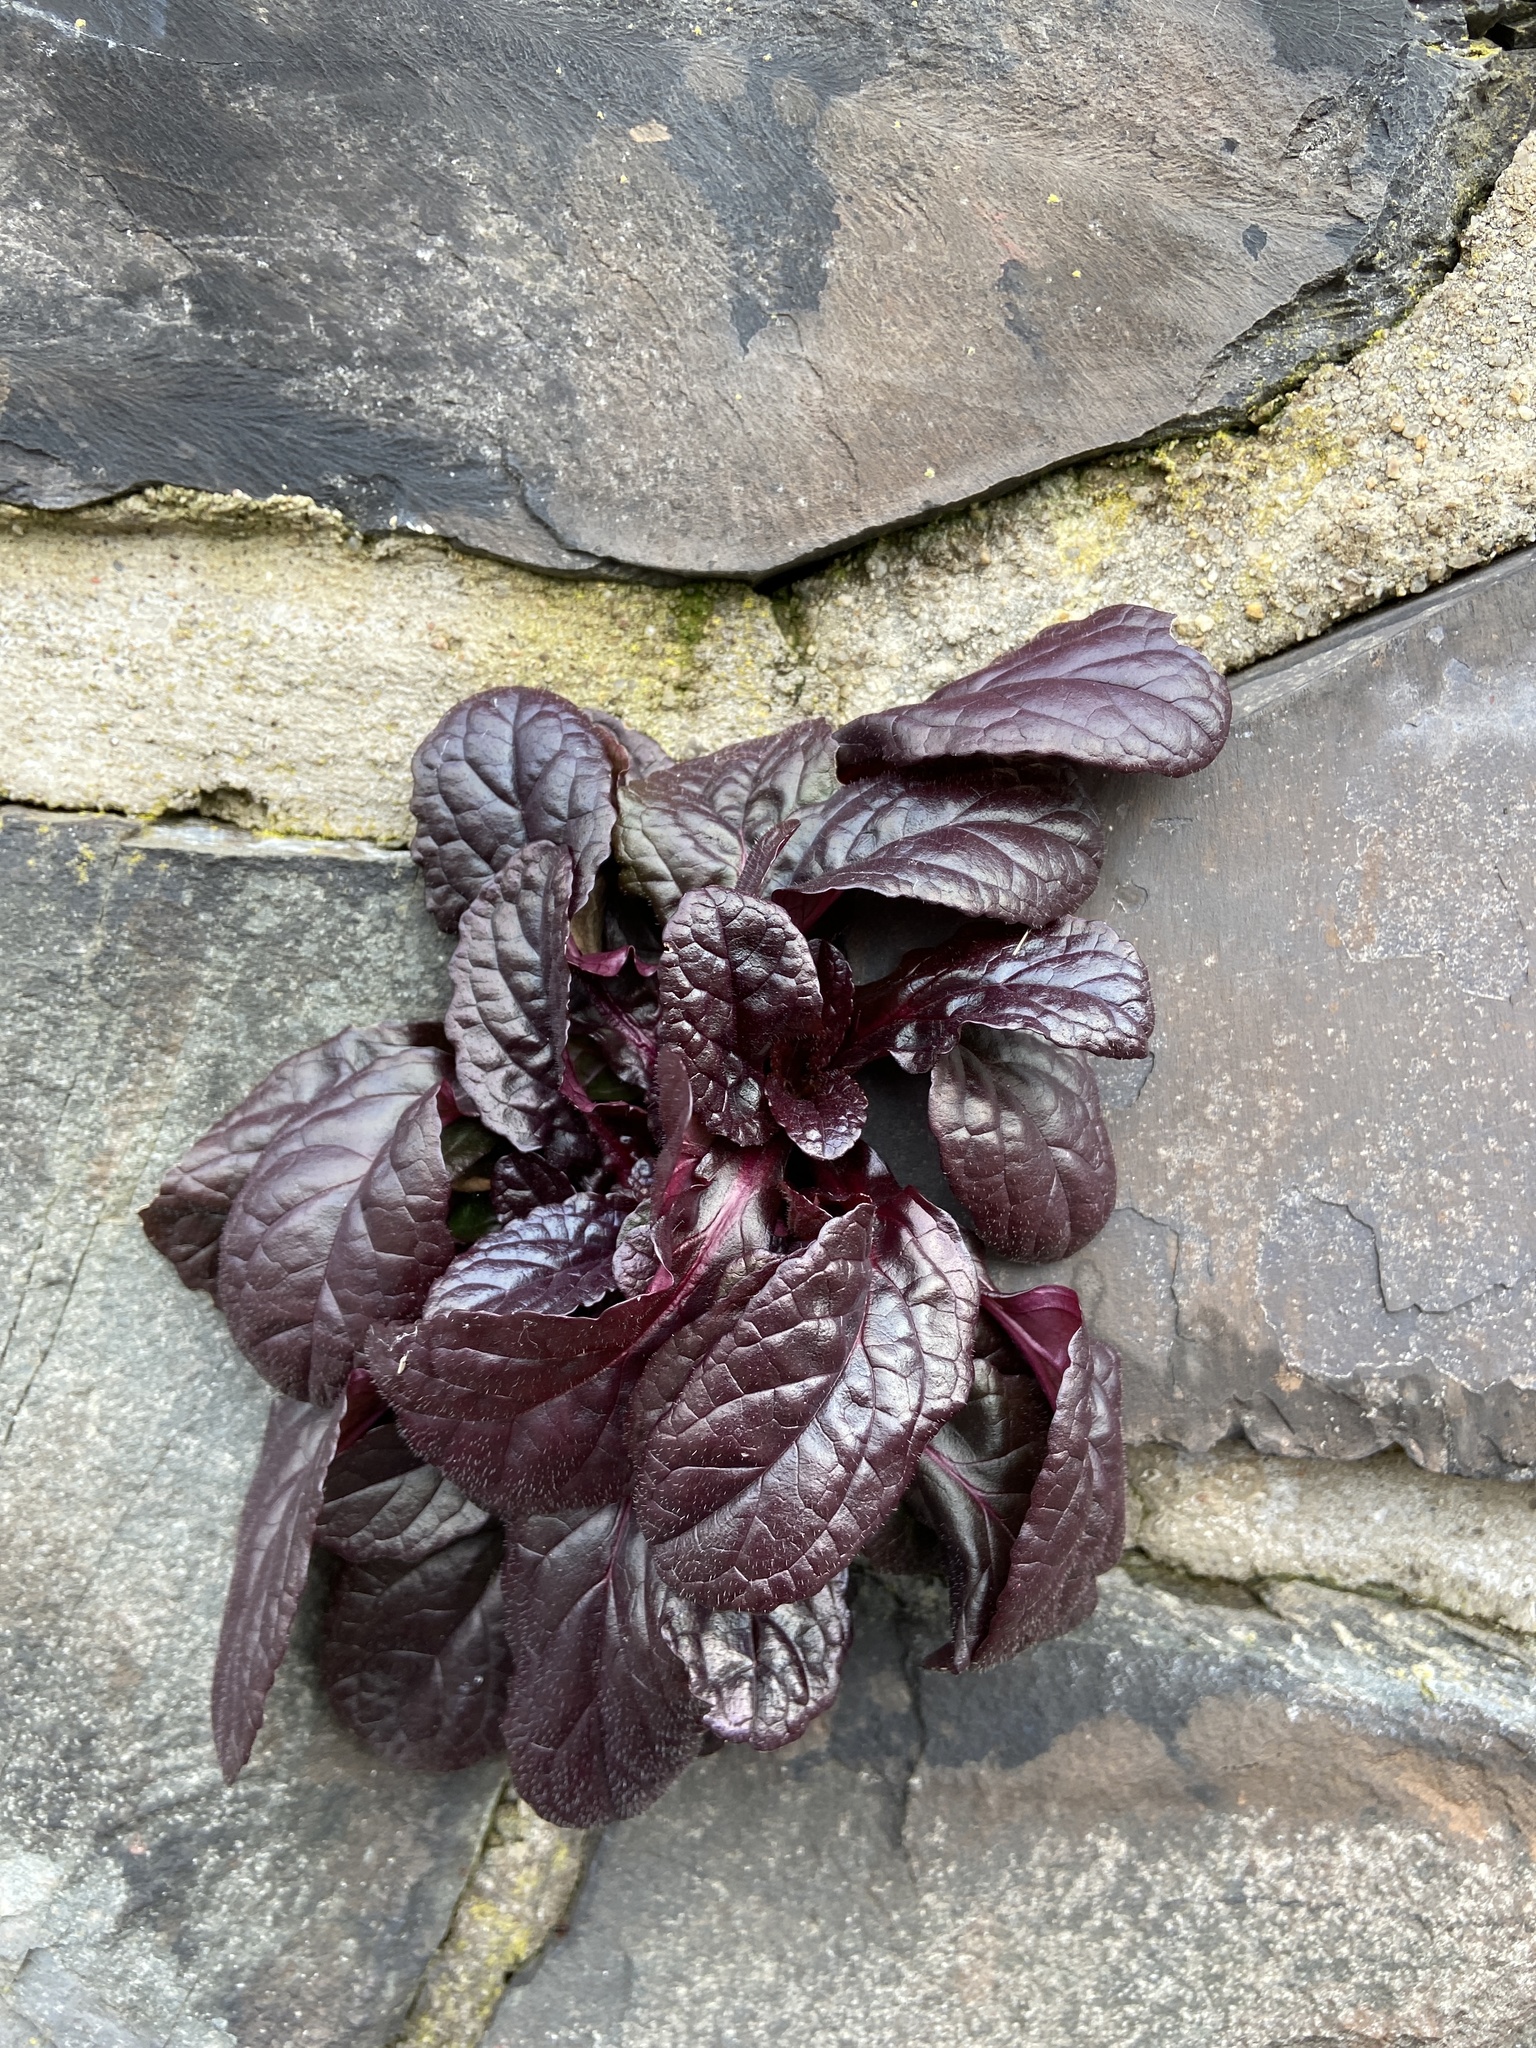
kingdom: Plantae
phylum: Tracheophyta
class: Magnoliopsida
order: Lamiales
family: Lamiaceae
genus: Ajuga
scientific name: Ajuga reptans
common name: Bugle
